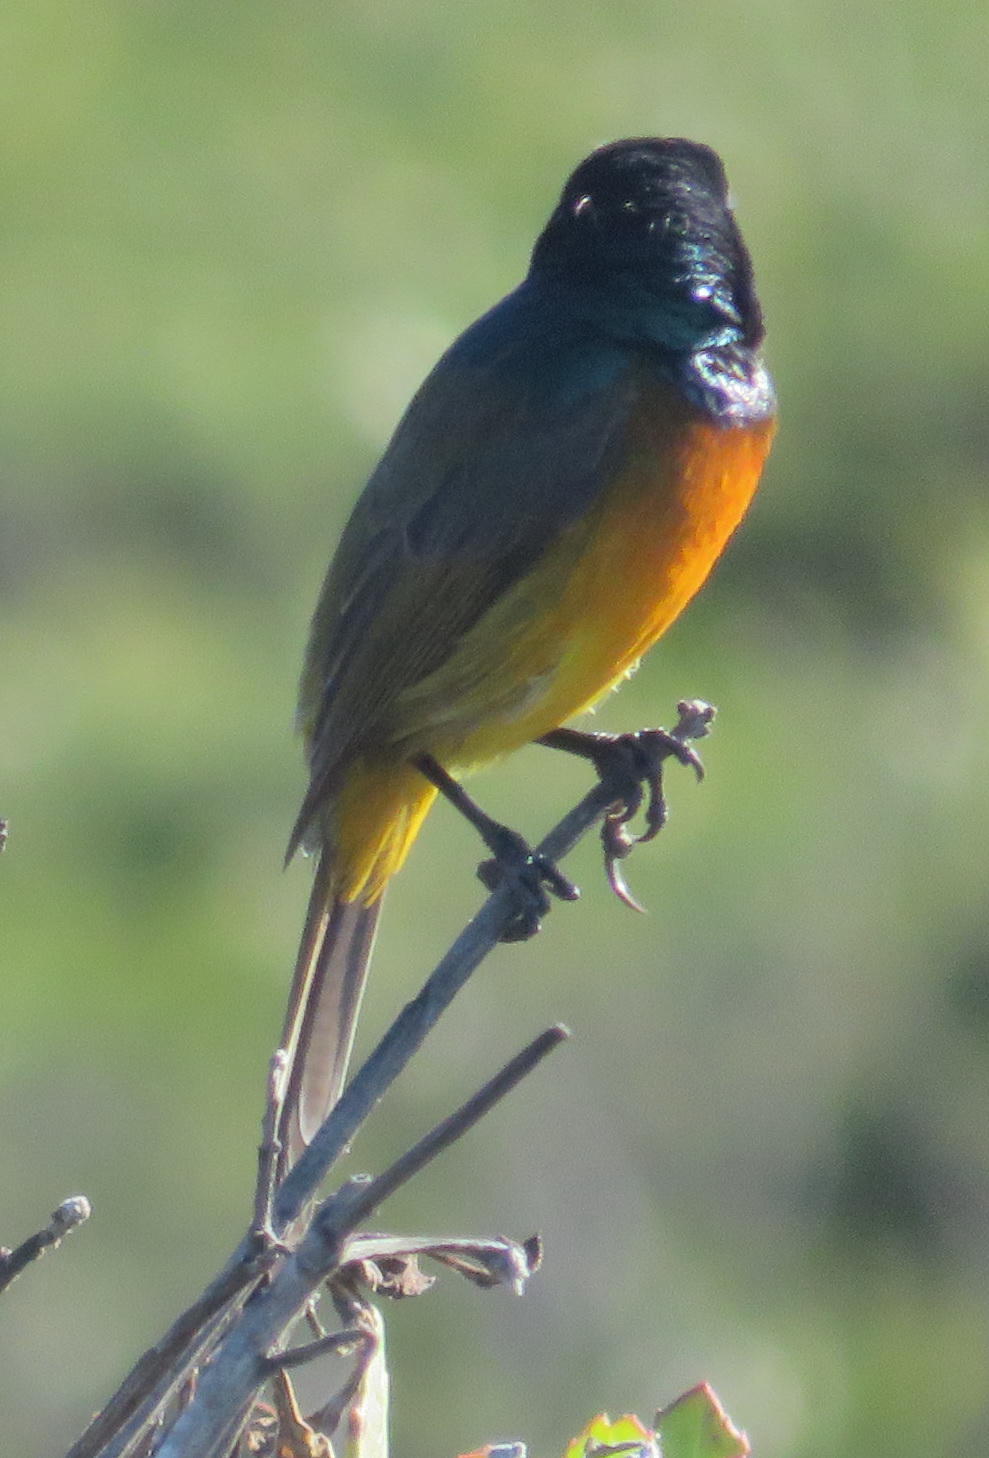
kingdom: Animalia
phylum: Chordata
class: Aves
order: Passeriformes
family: Nectariniidae
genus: Anthobaphes
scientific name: Anthobaphes violacea
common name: Orange-breasted sunbird
